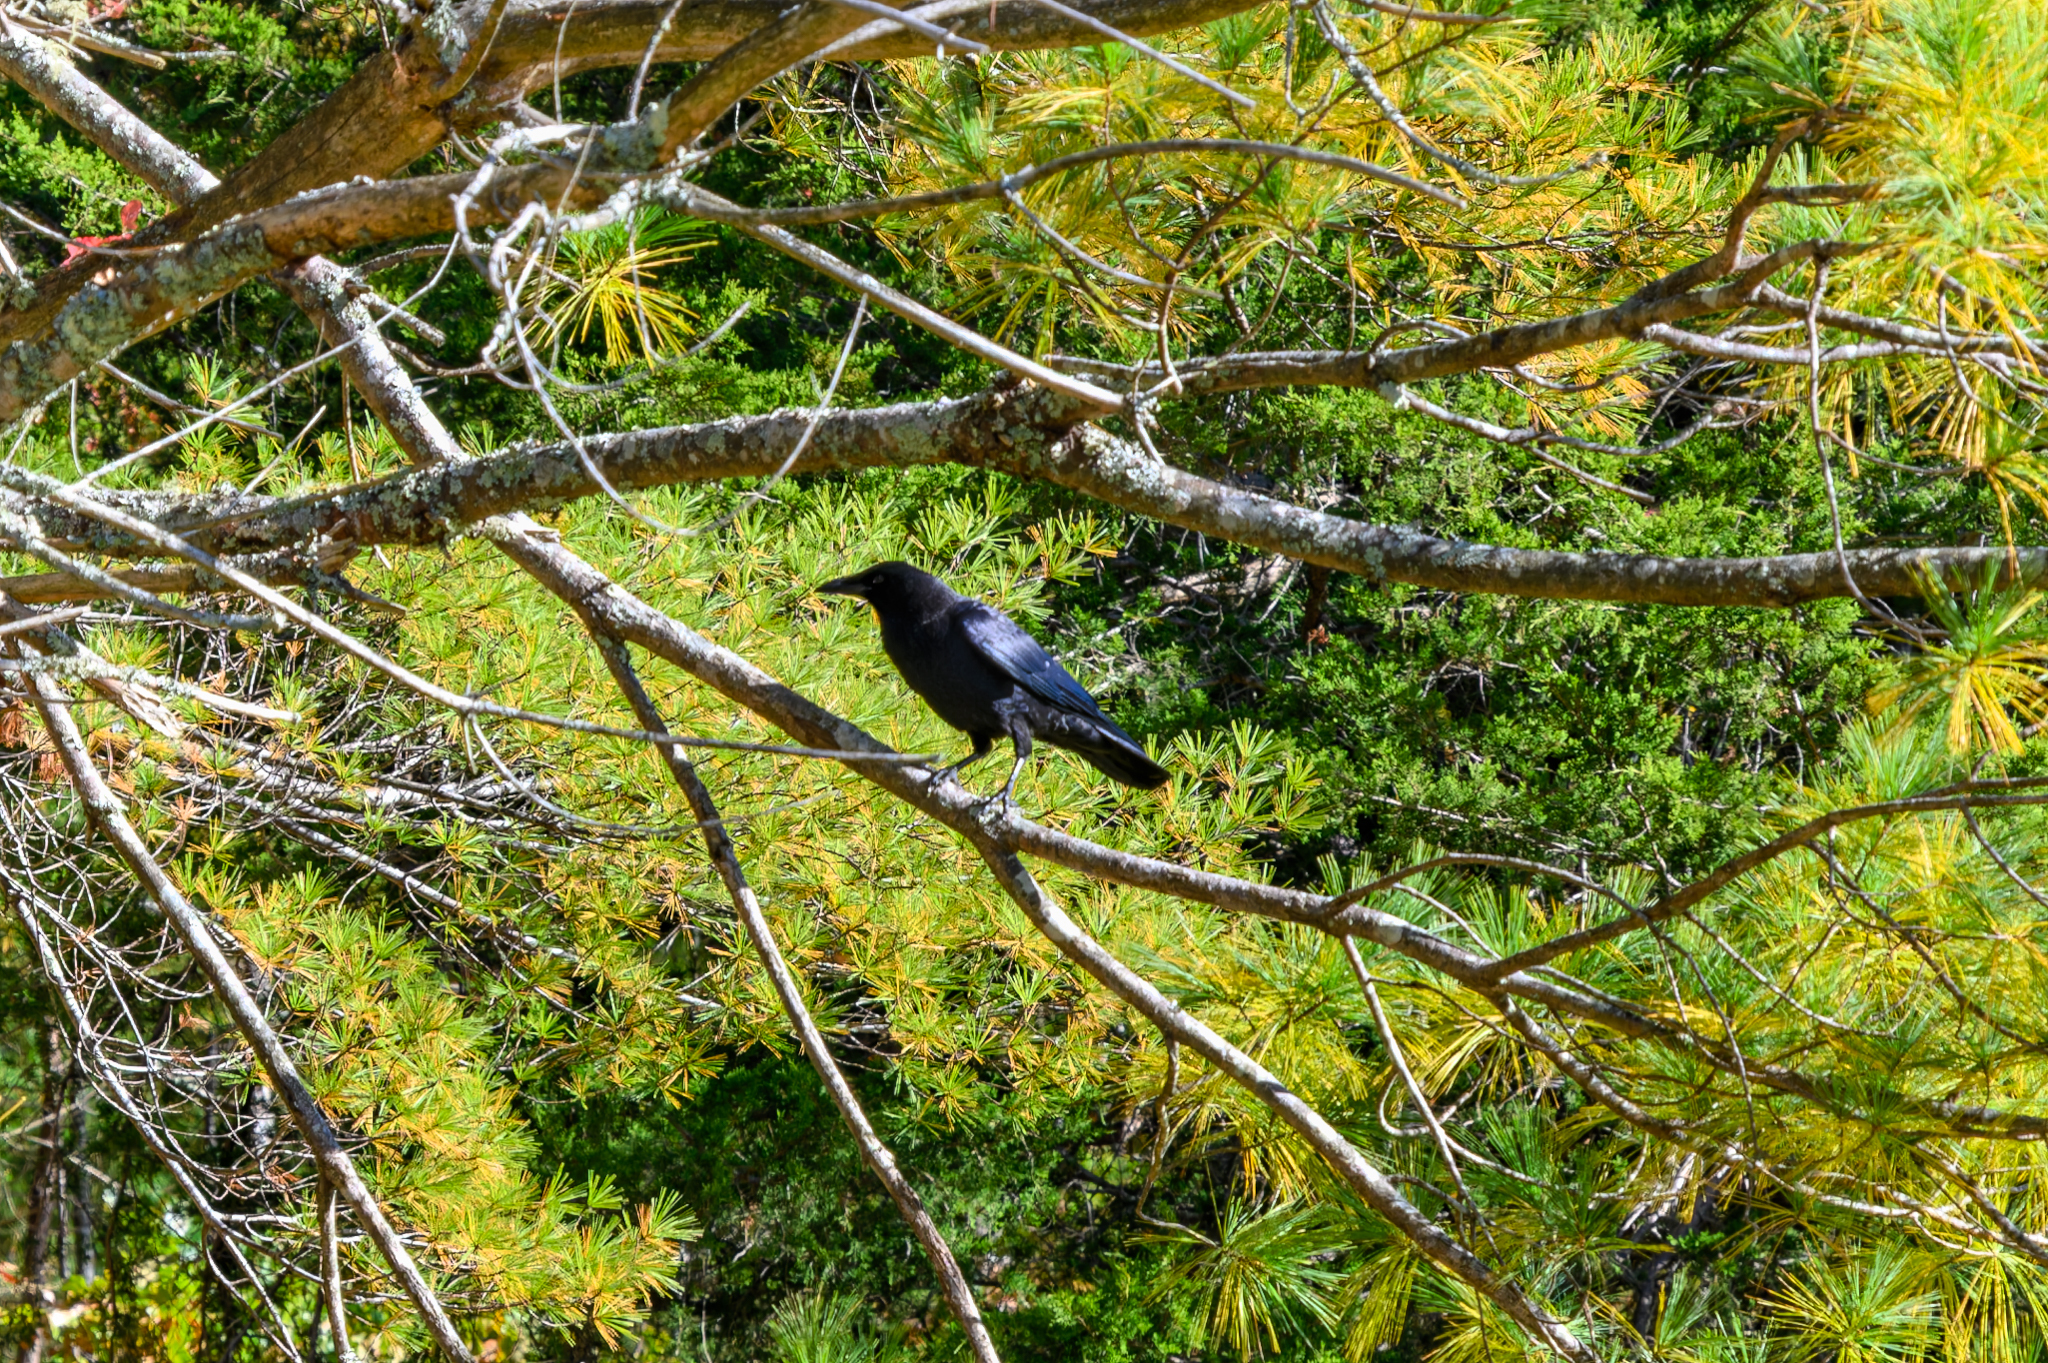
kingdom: Animalia
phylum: Chordata
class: Aves
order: Passeriformes
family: Corvidae
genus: Corvus
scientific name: Corvus brachyrhynchos
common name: American crow
